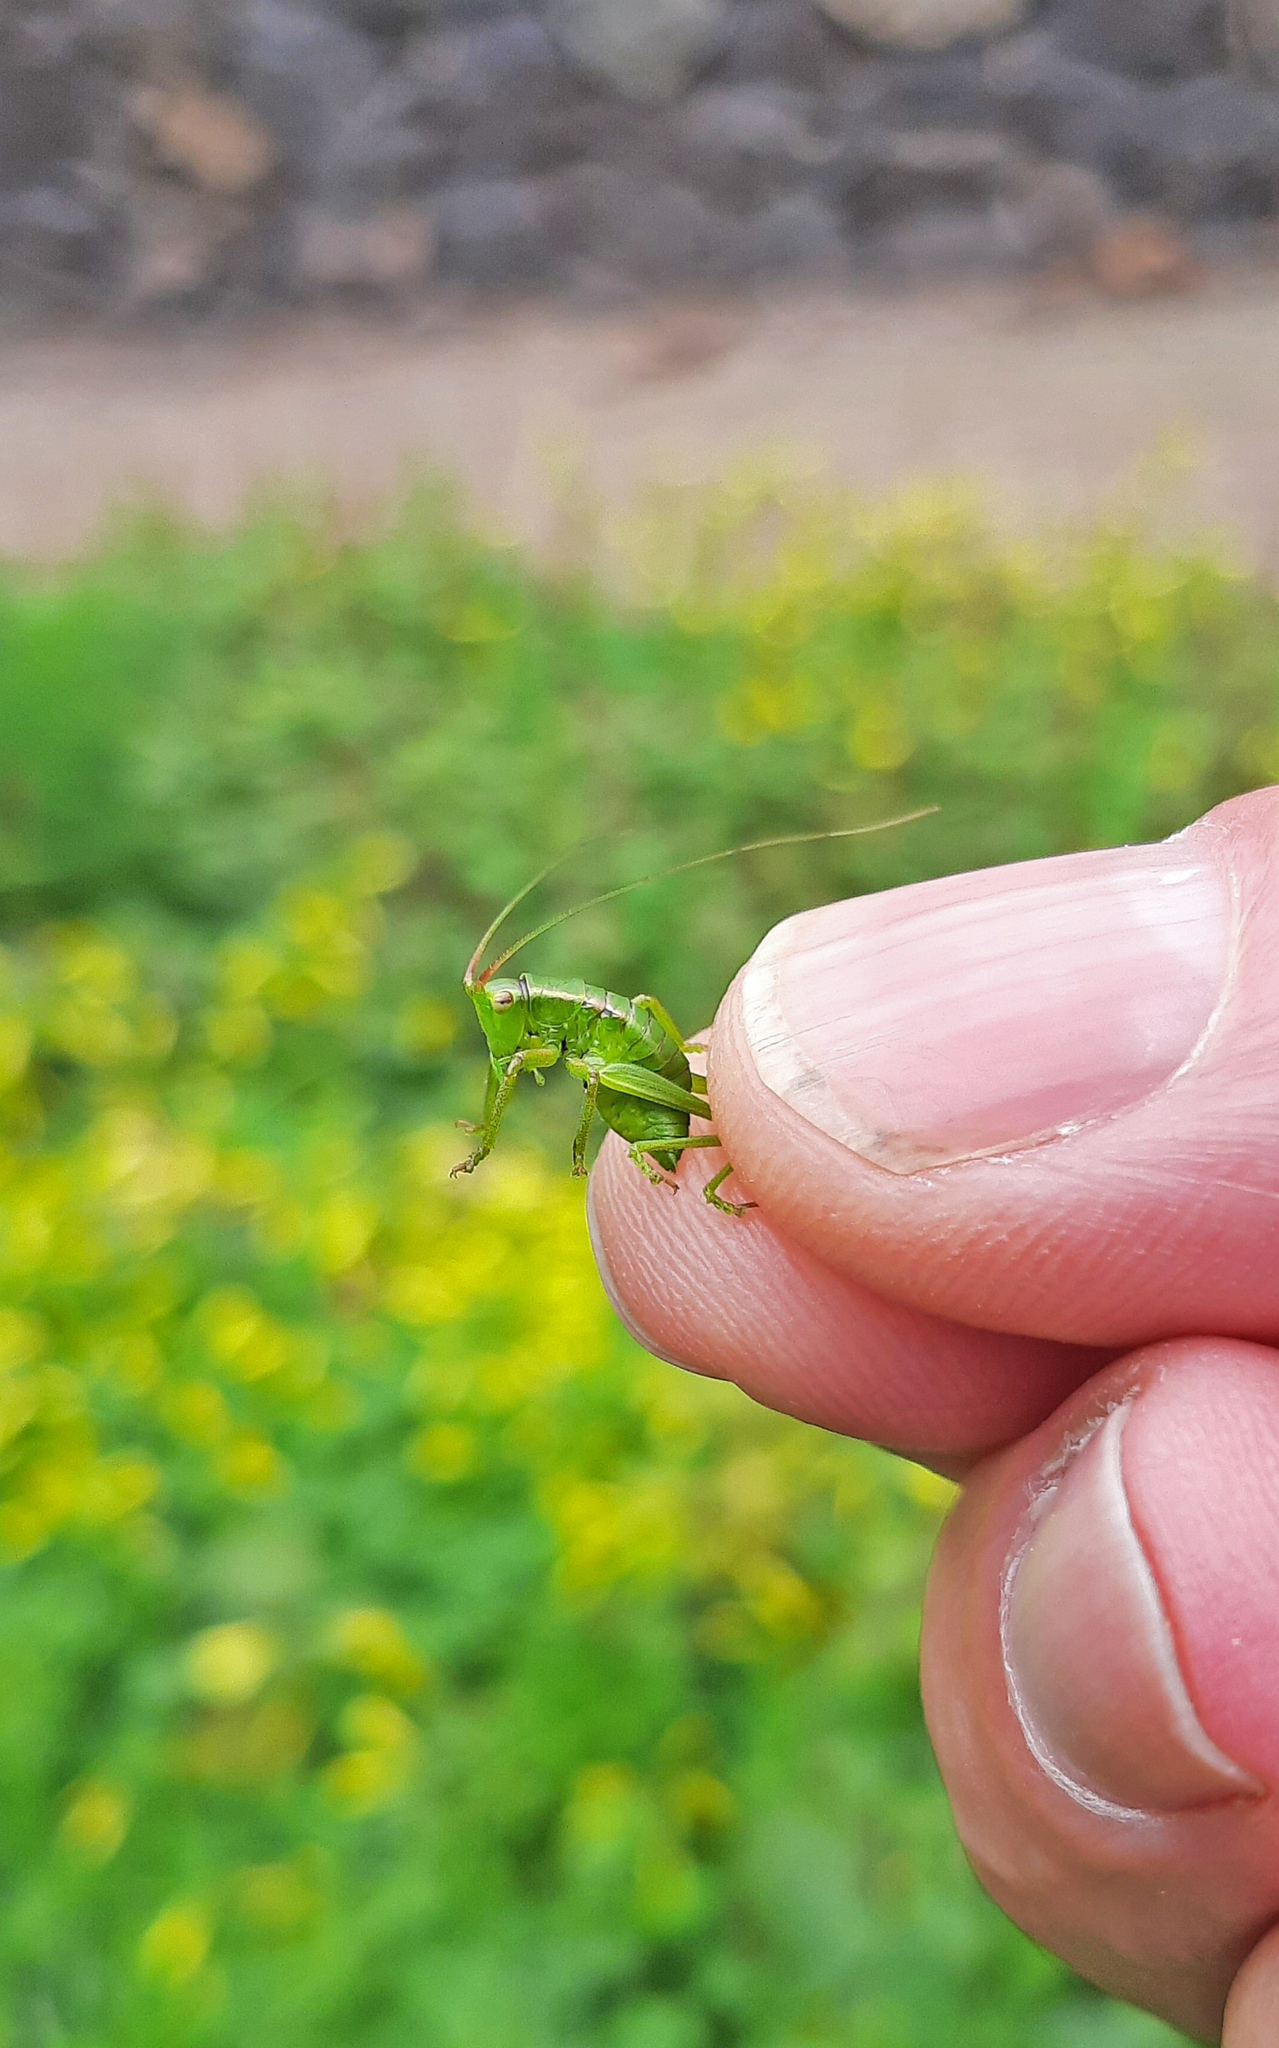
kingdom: Animalia
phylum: Arthropoda
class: Insecta
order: Orthoptera
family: Tettigoniidae
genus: Calliphona
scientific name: Calliphona gomerensis
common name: Gomera green bush-cricket
